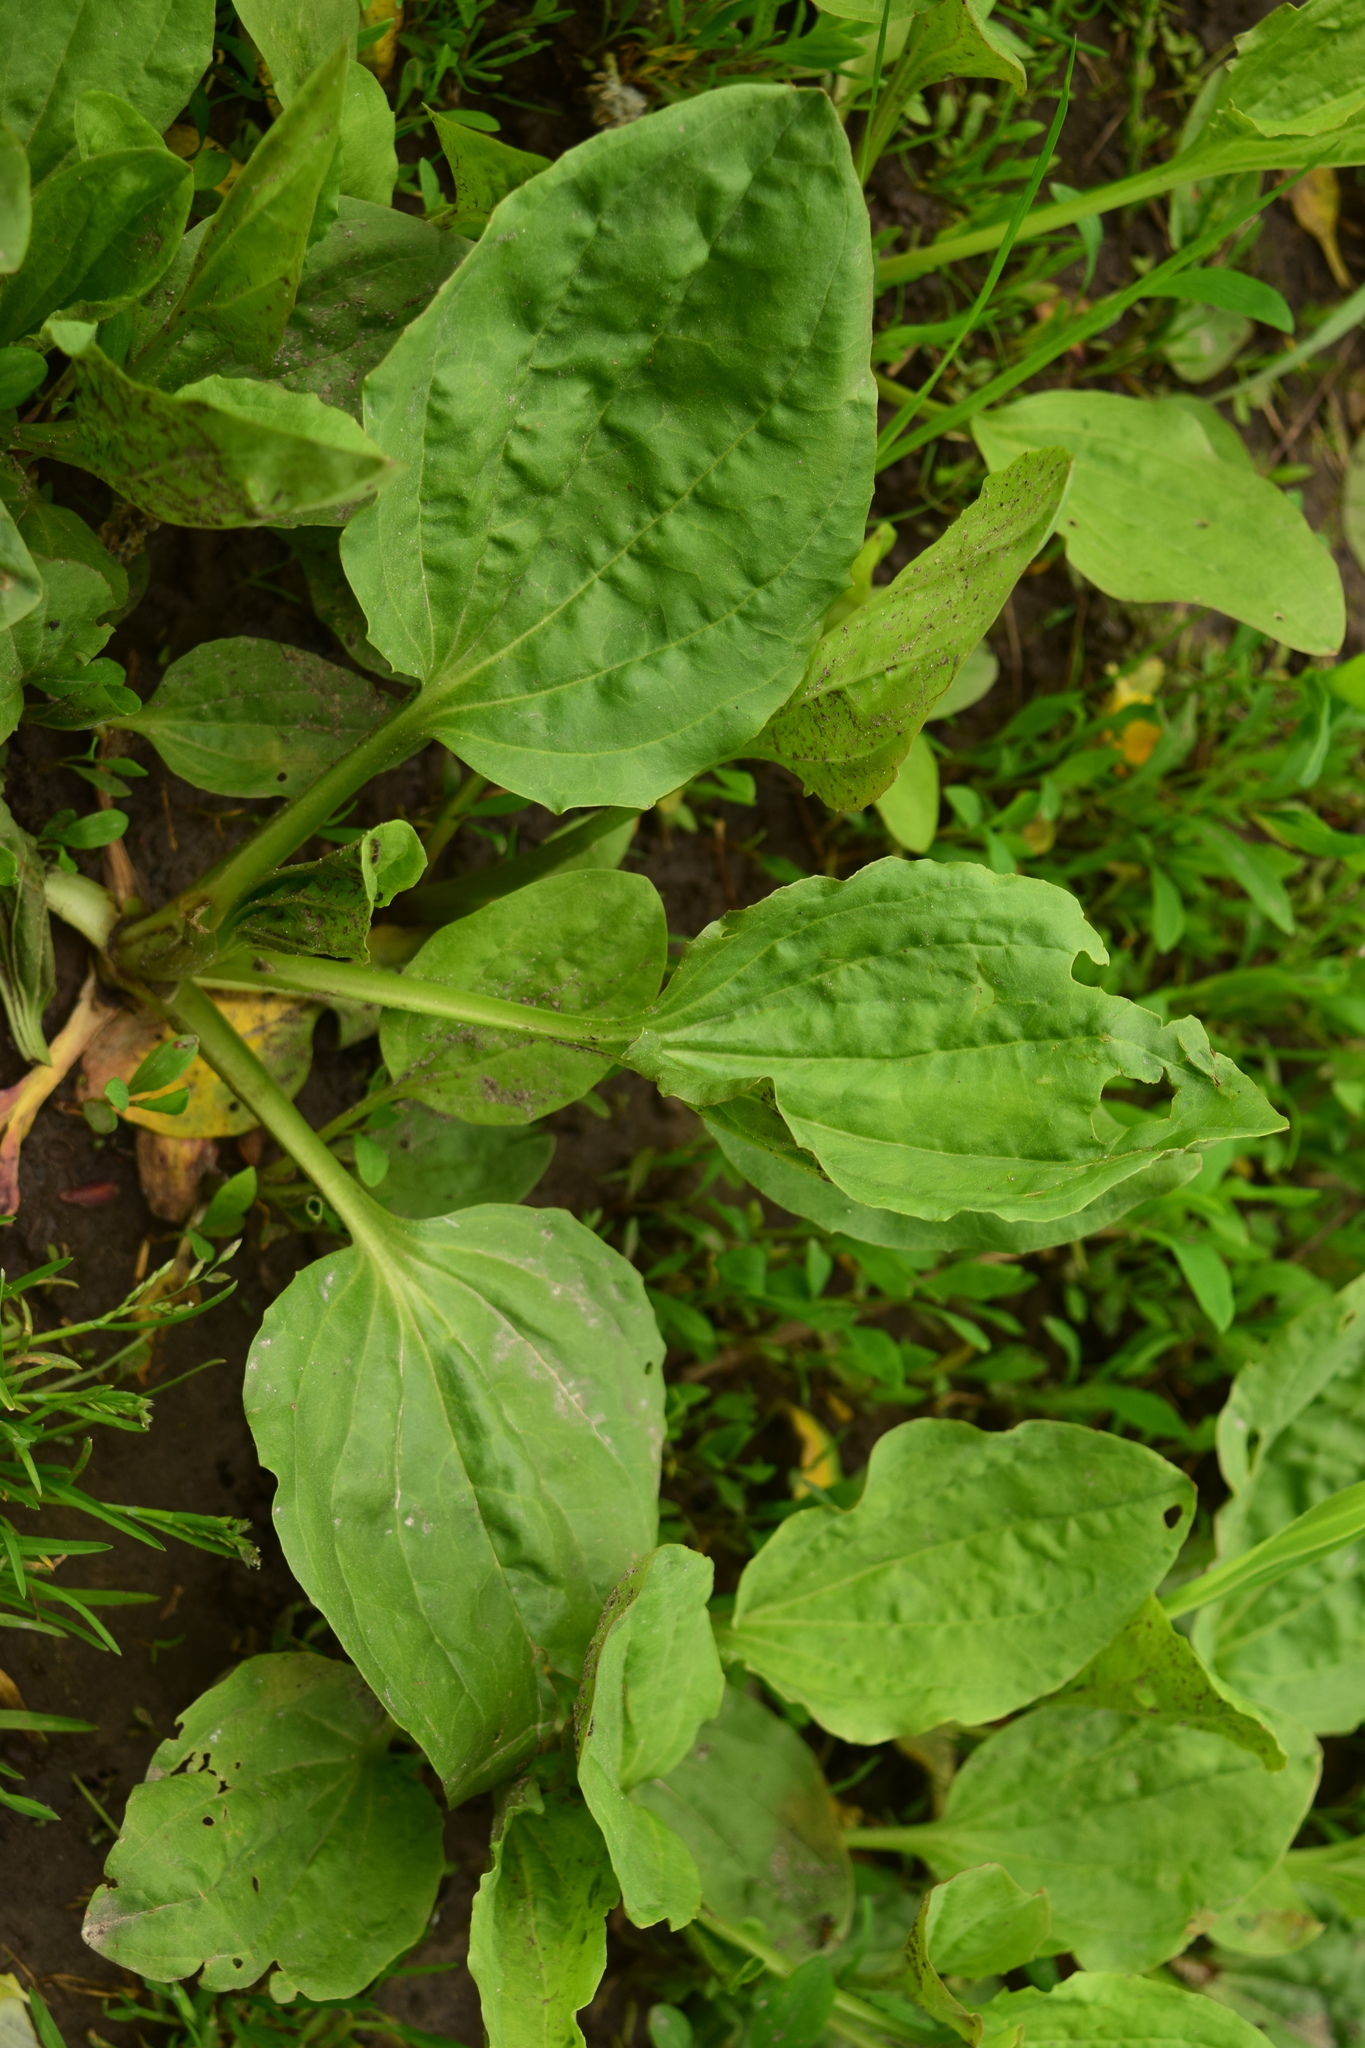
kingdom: Plantae
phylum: Tracheophyta
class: Magnoliopsida
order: Lamiales
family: Plantaginaceae
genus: Plantago
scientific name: Plantago major
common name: Common plantain
